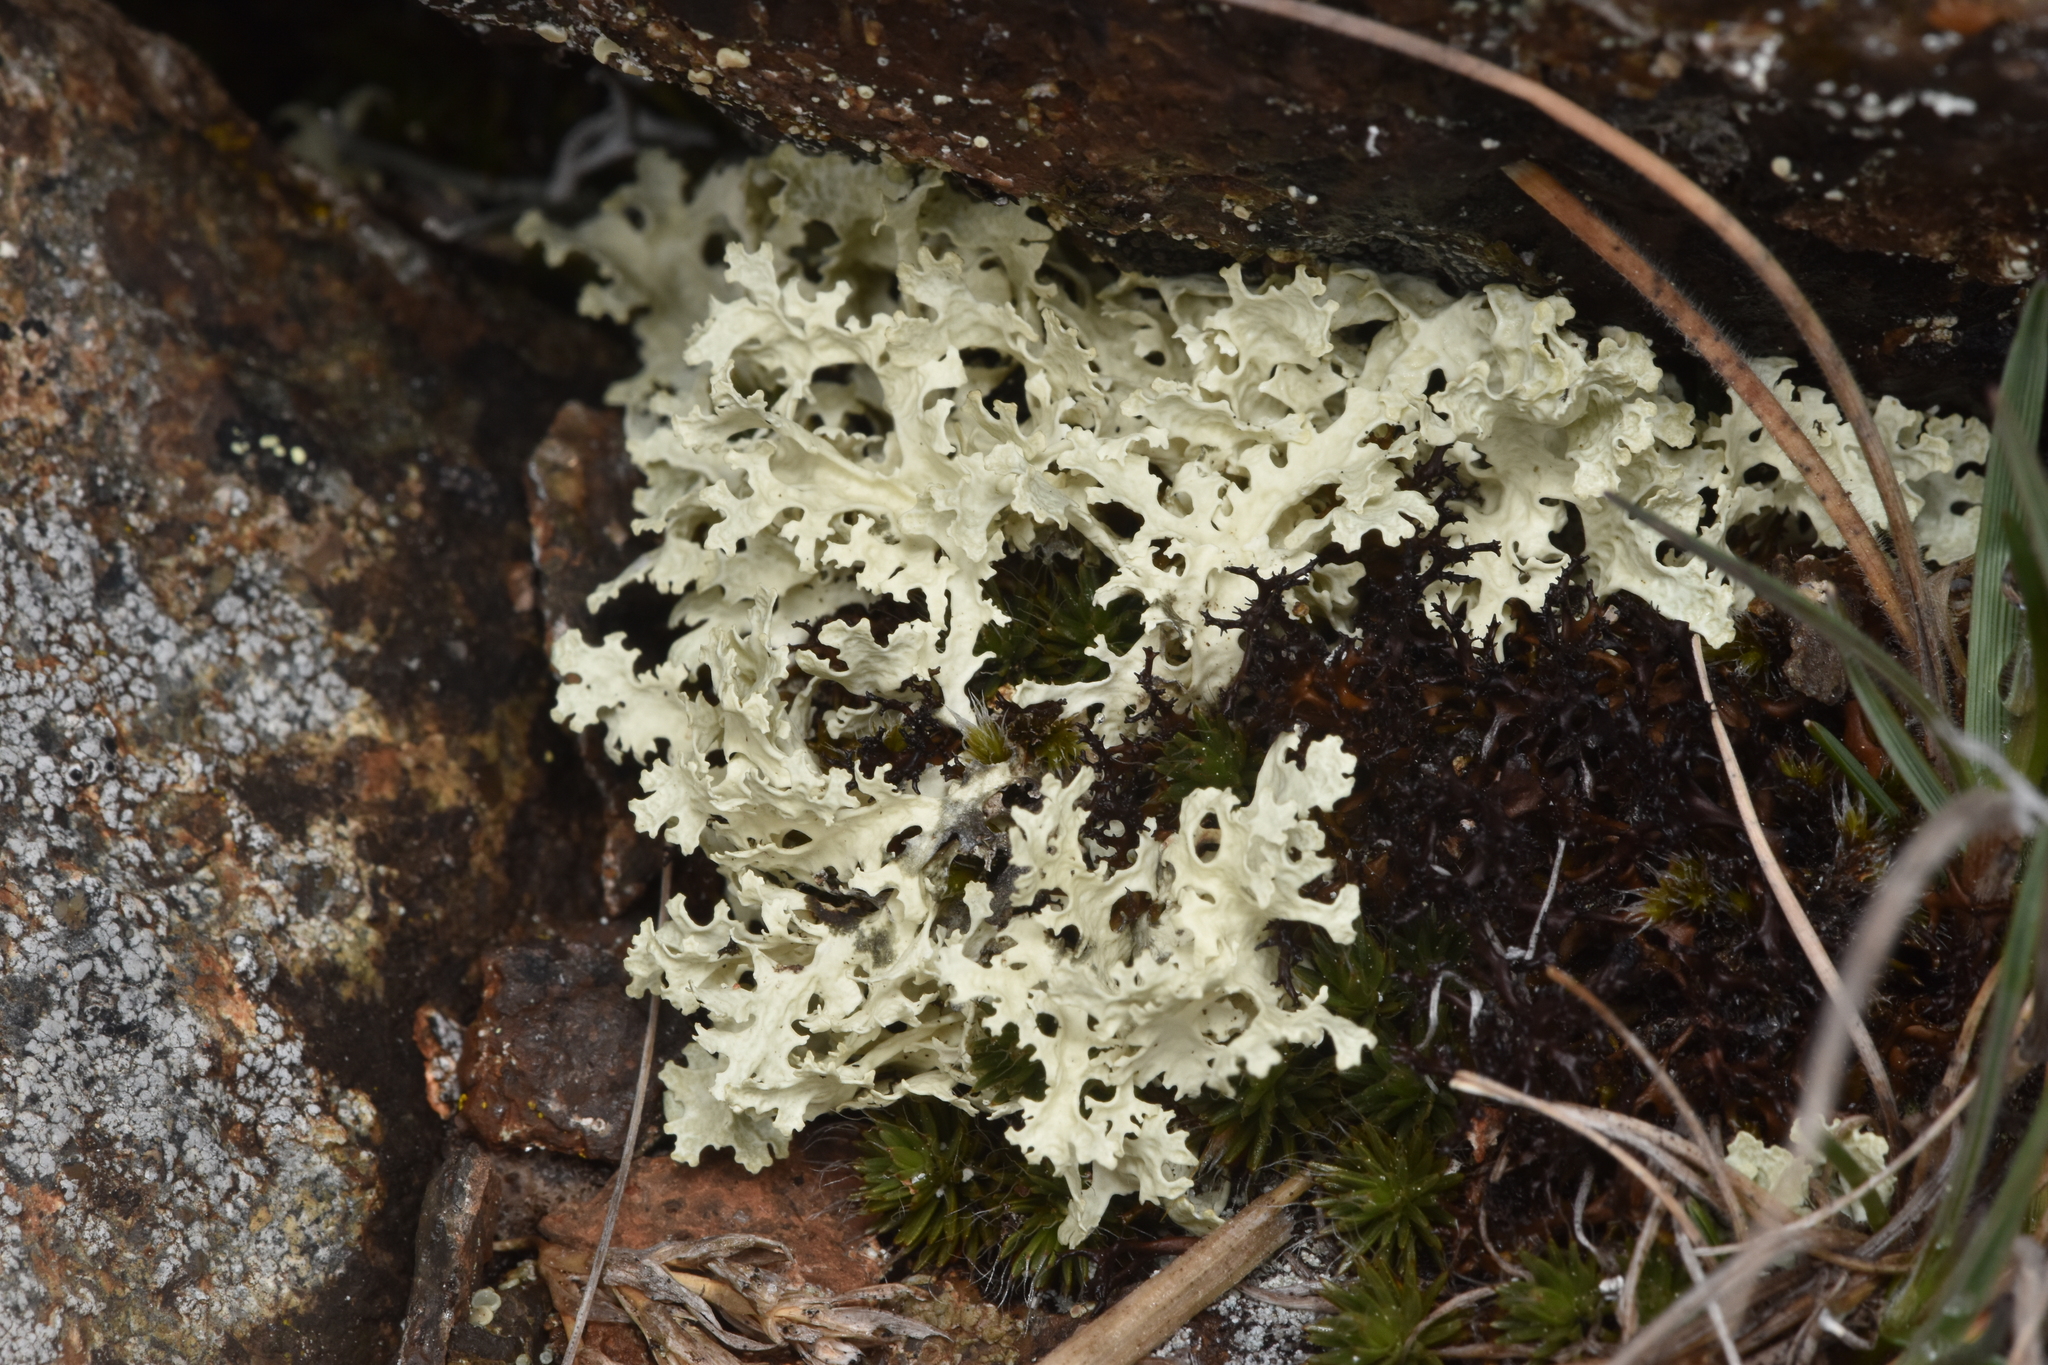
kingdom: Fungi
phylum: Ascomycota
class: Lecanoromycetes
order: Lecanorales
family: Parmeliaceae
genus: Nephromopsis
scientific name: Nephromopsis nivalis
